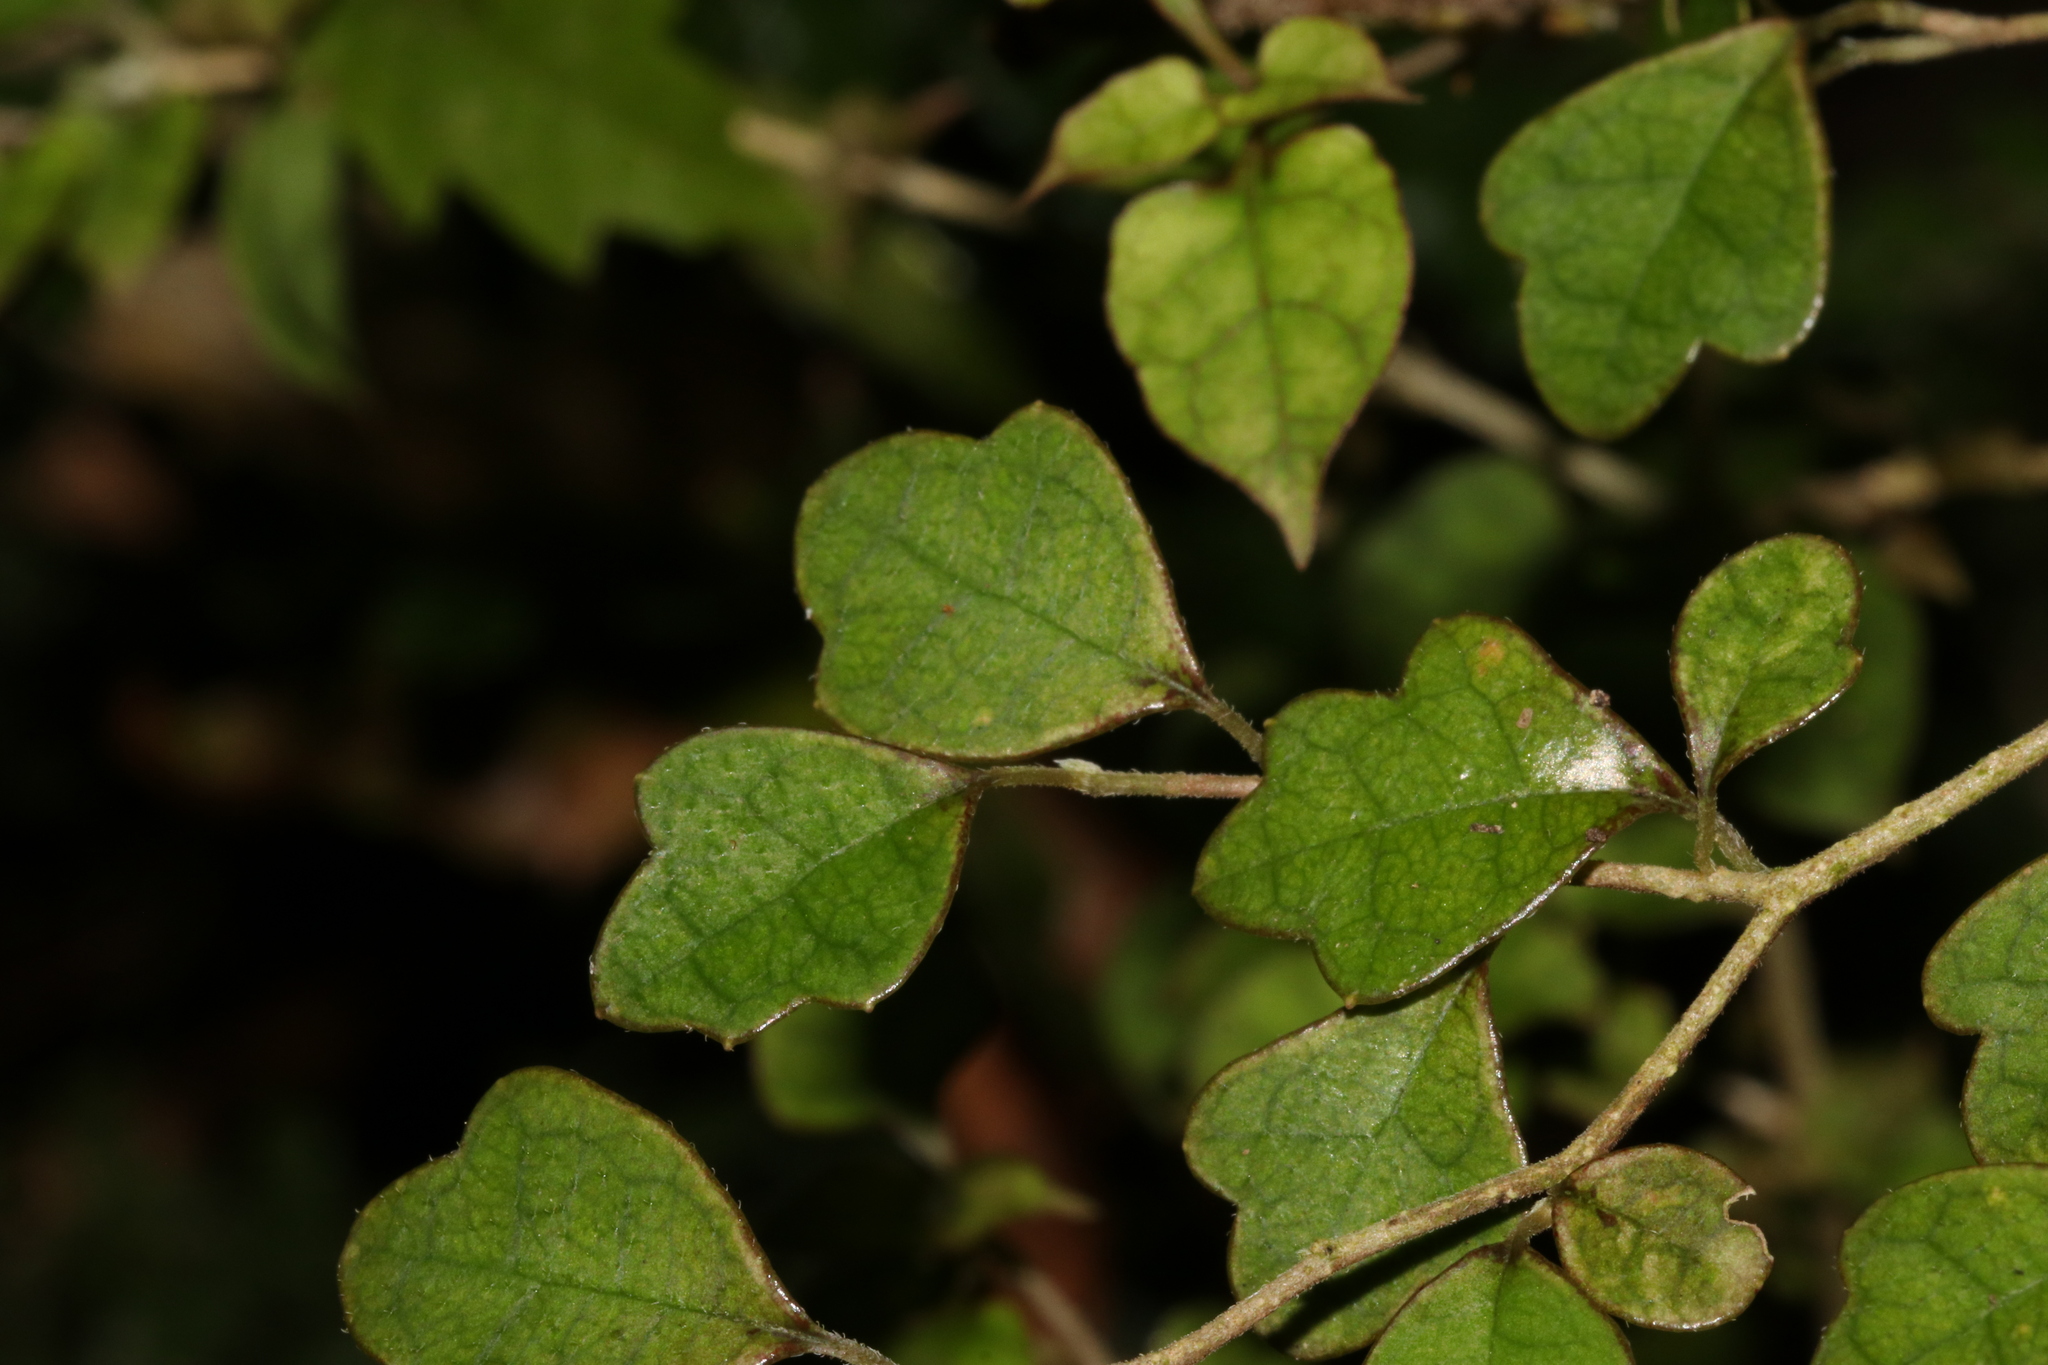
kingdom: Plantae
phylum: Tracheophyta
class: Magnoliopsida
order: Apiales
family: Pennantiaceae
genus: Pennantia
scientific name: Pennantia corymbosa
